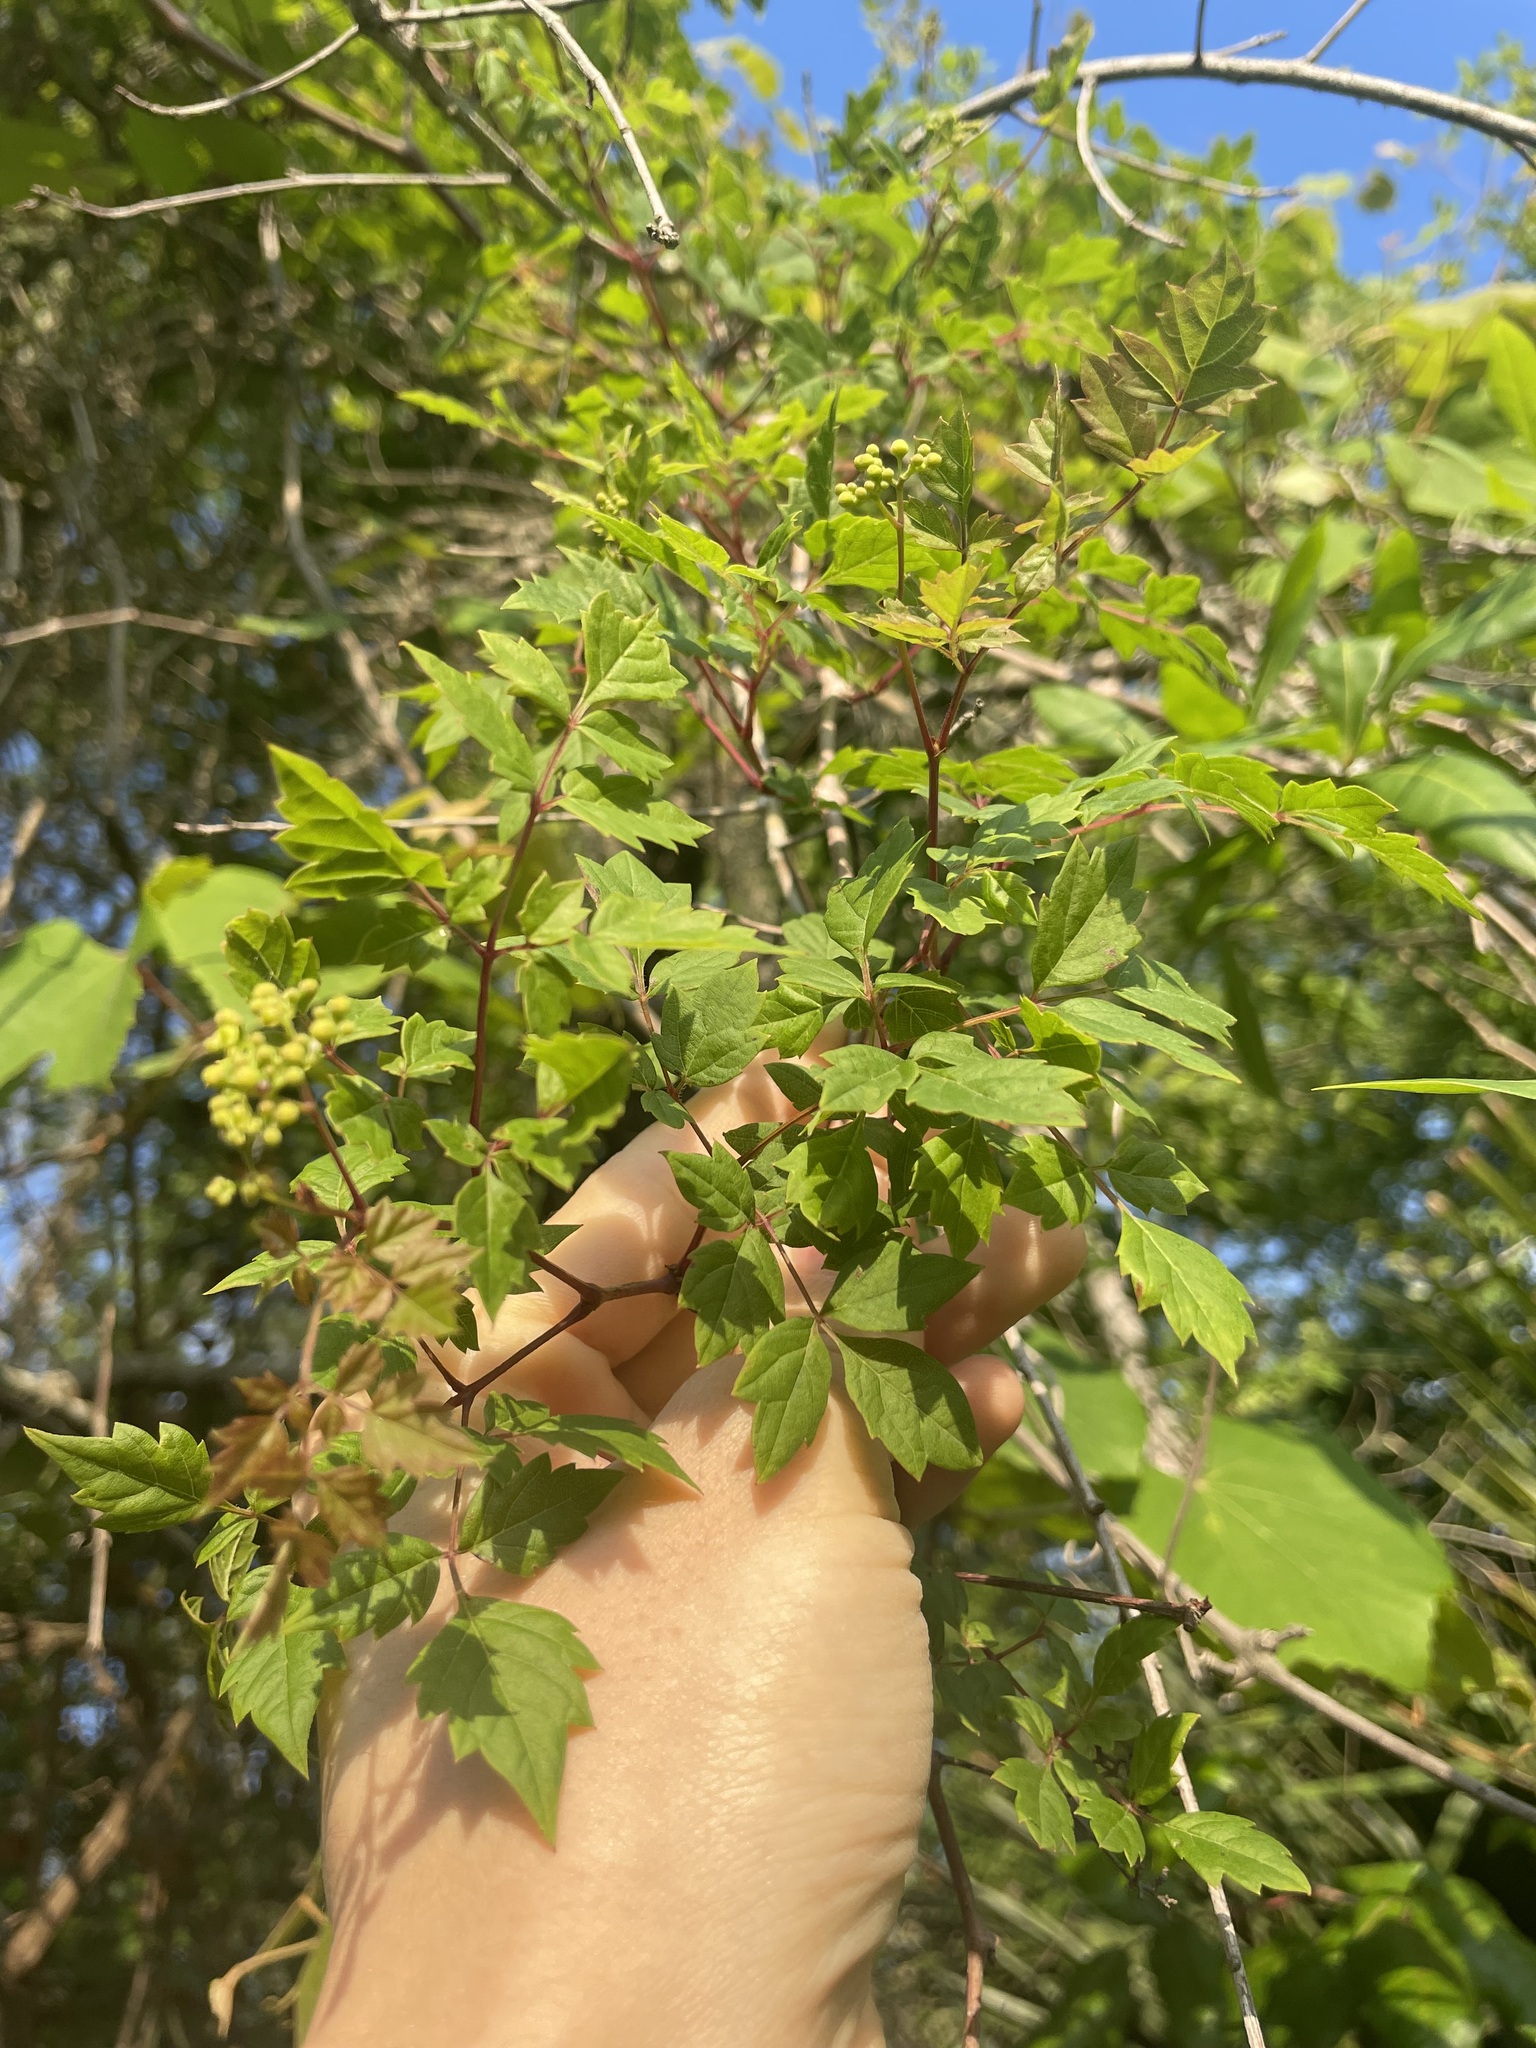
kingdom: Plantae
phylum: Tracheophyta
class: Magnoliopsida
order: Vitales
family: Vitaceae
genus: Nekemias
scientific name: Nekemias arborea
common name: Peppervine
